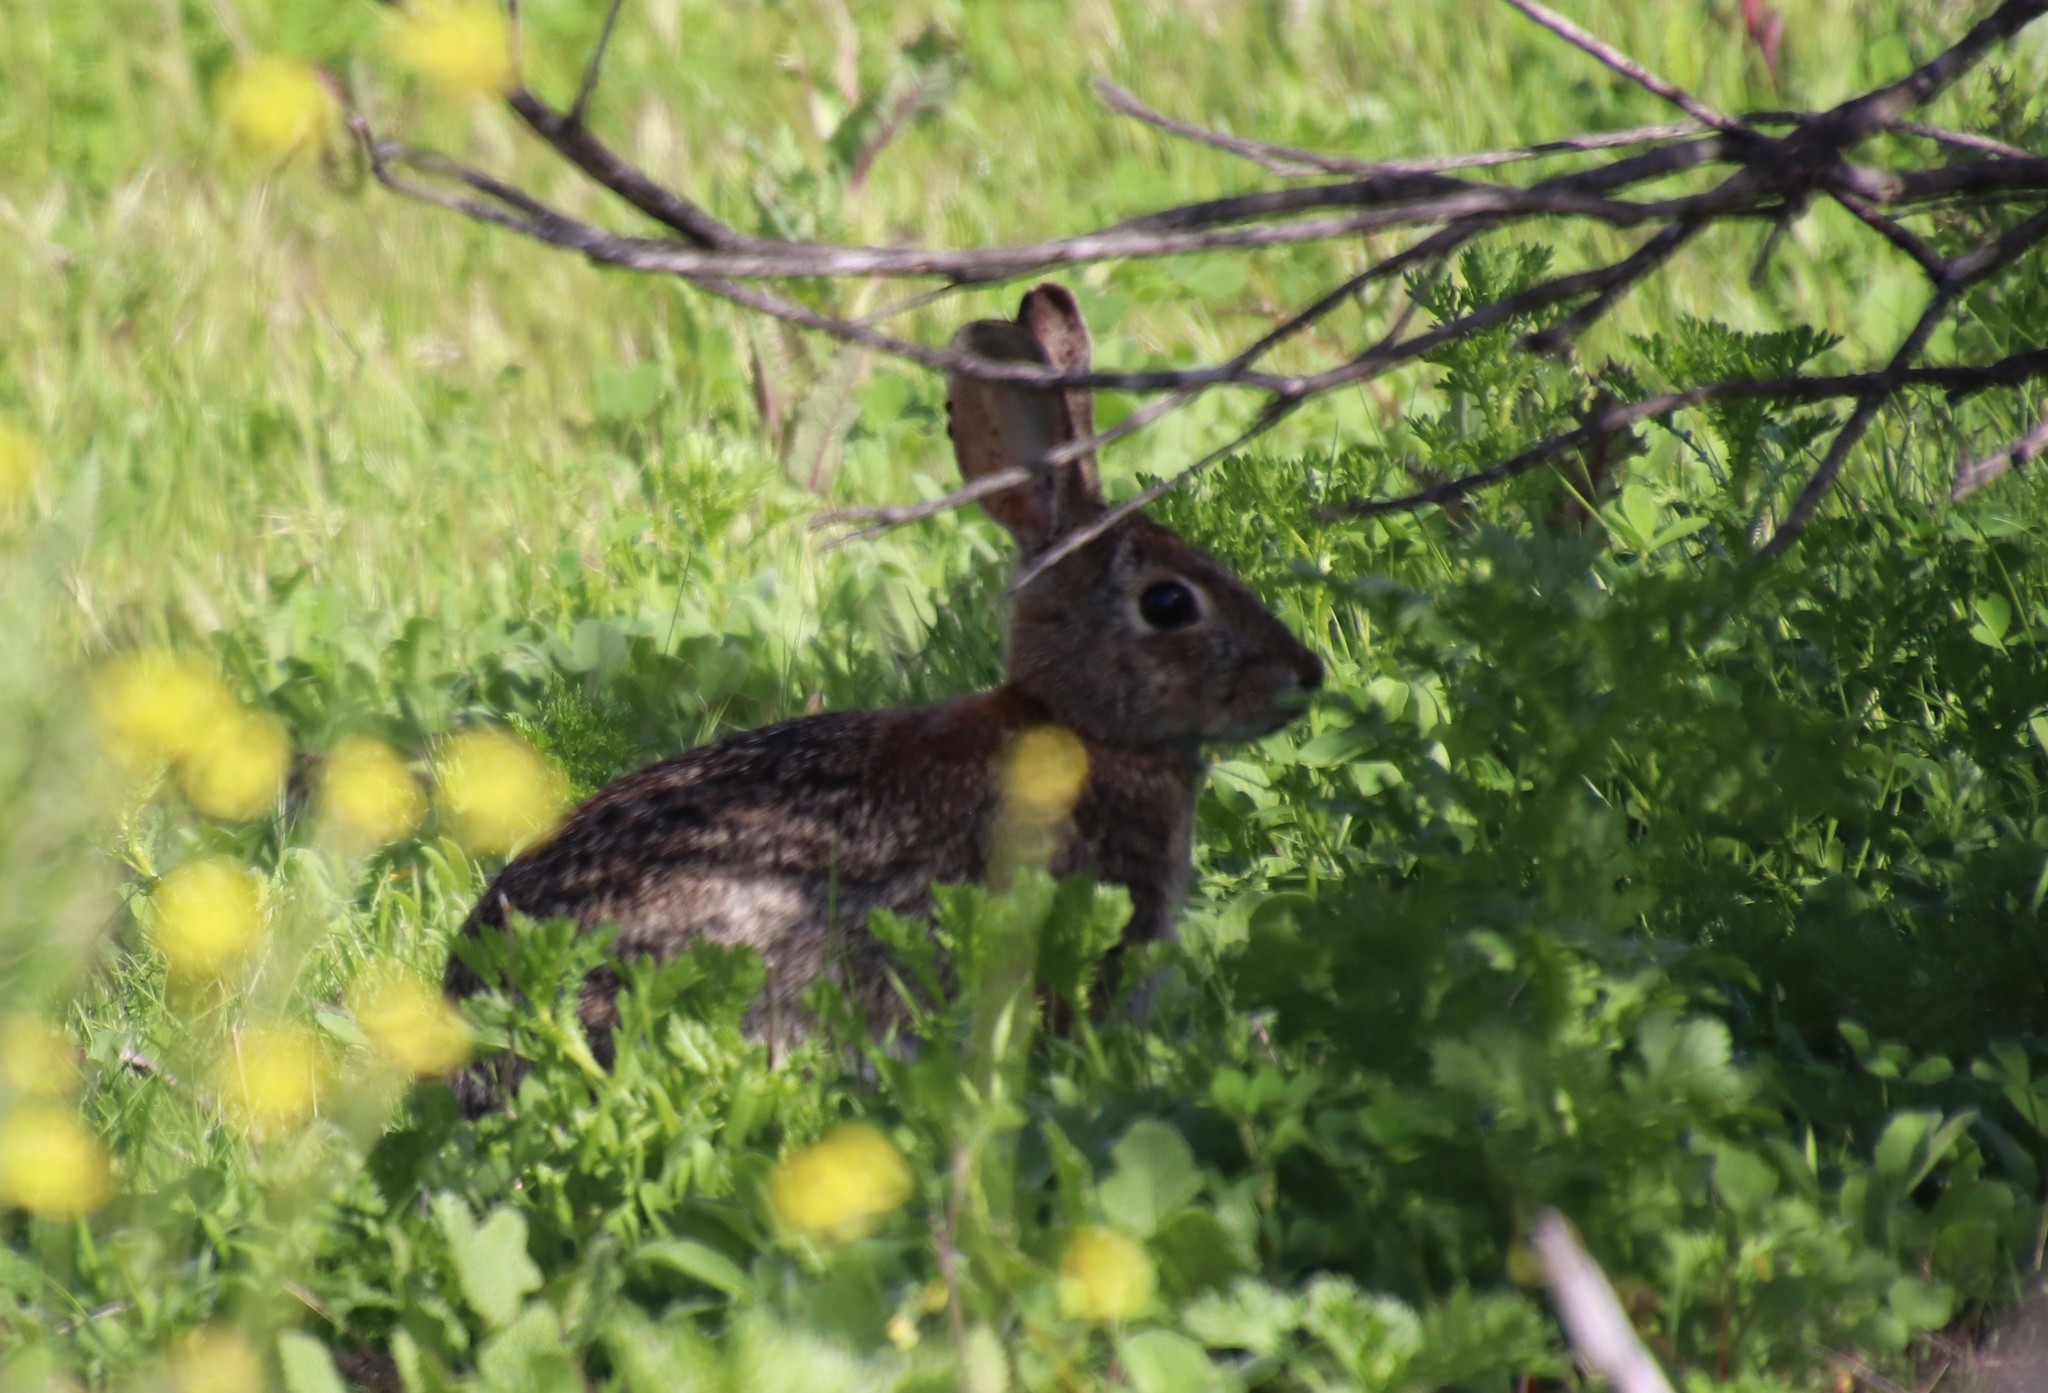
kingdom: Animalia
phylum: Chordata
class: Mammalia
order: Lagomorpha
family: Leporidae
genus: Sylvilagus
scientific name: Sylvilagus audubonii
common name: Desert cottontail
